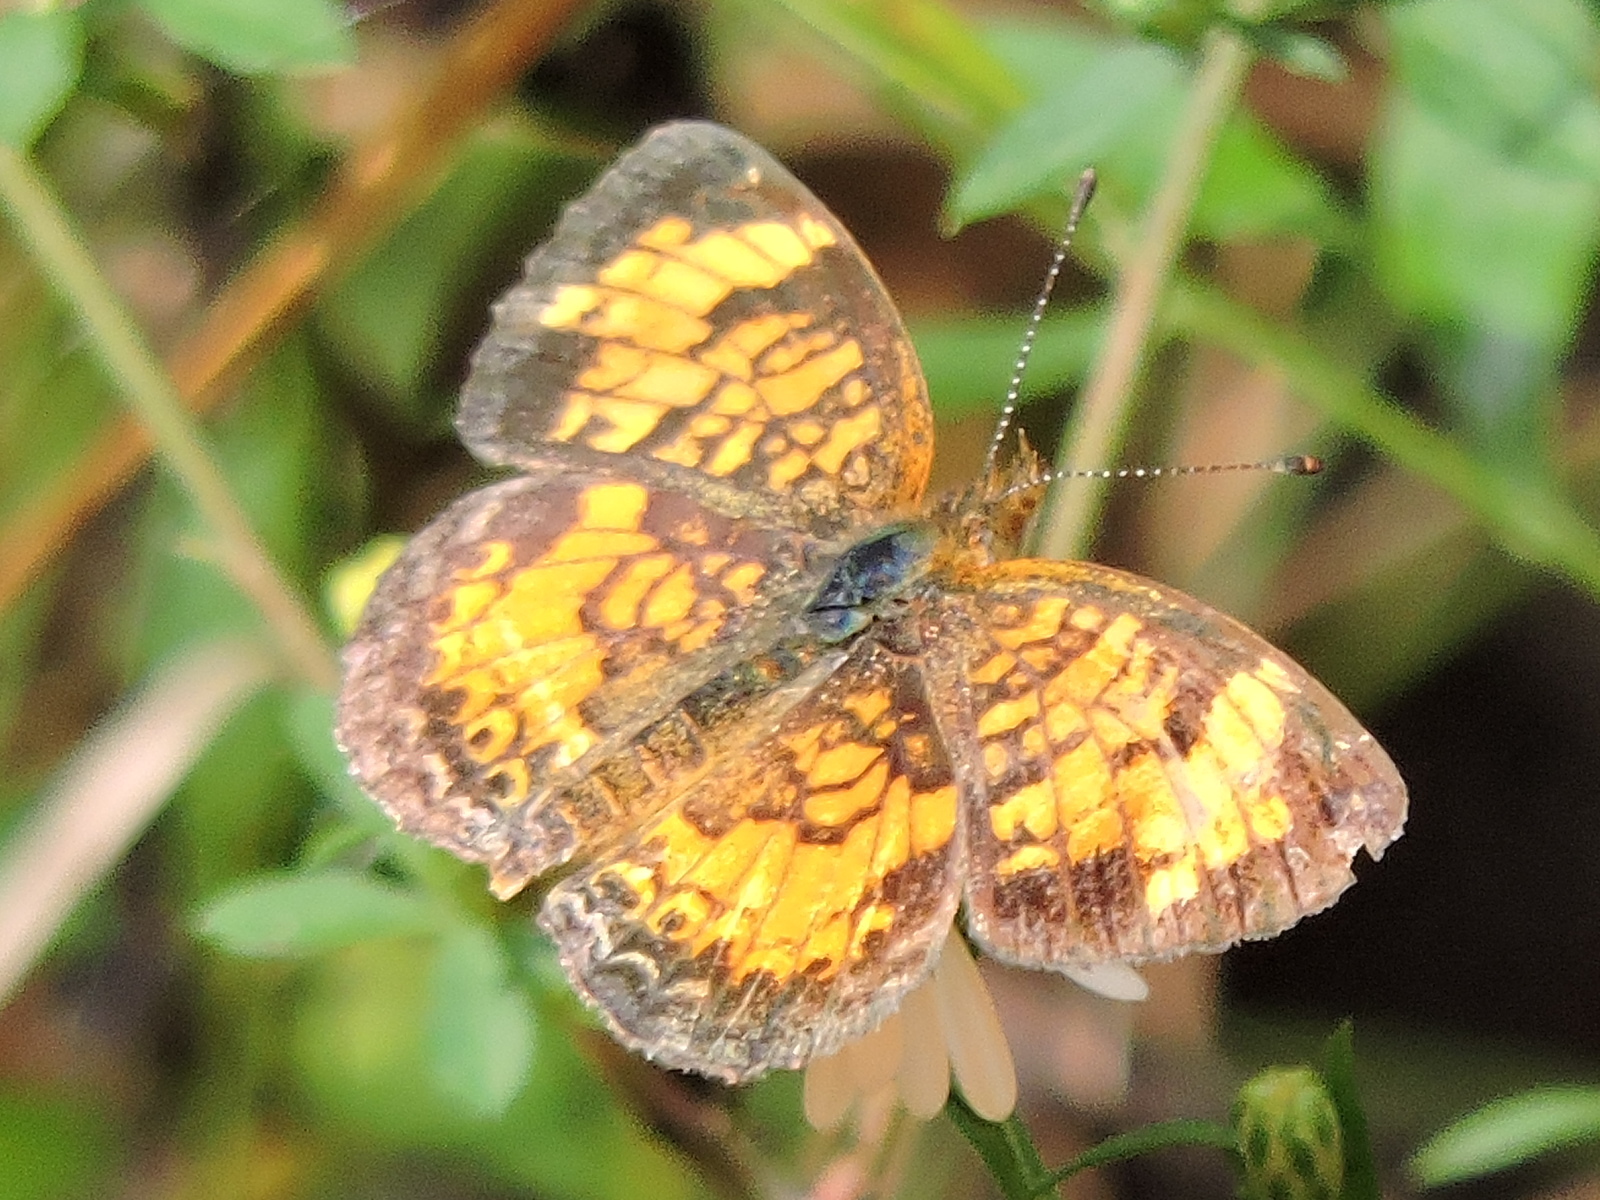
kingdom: Animalia
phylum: Arthropoda
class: Insecta
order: Lepidoptera
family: Nymphalidae
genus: Phyciodes
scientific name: Phyciodes tharos
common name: Pearl crescent
